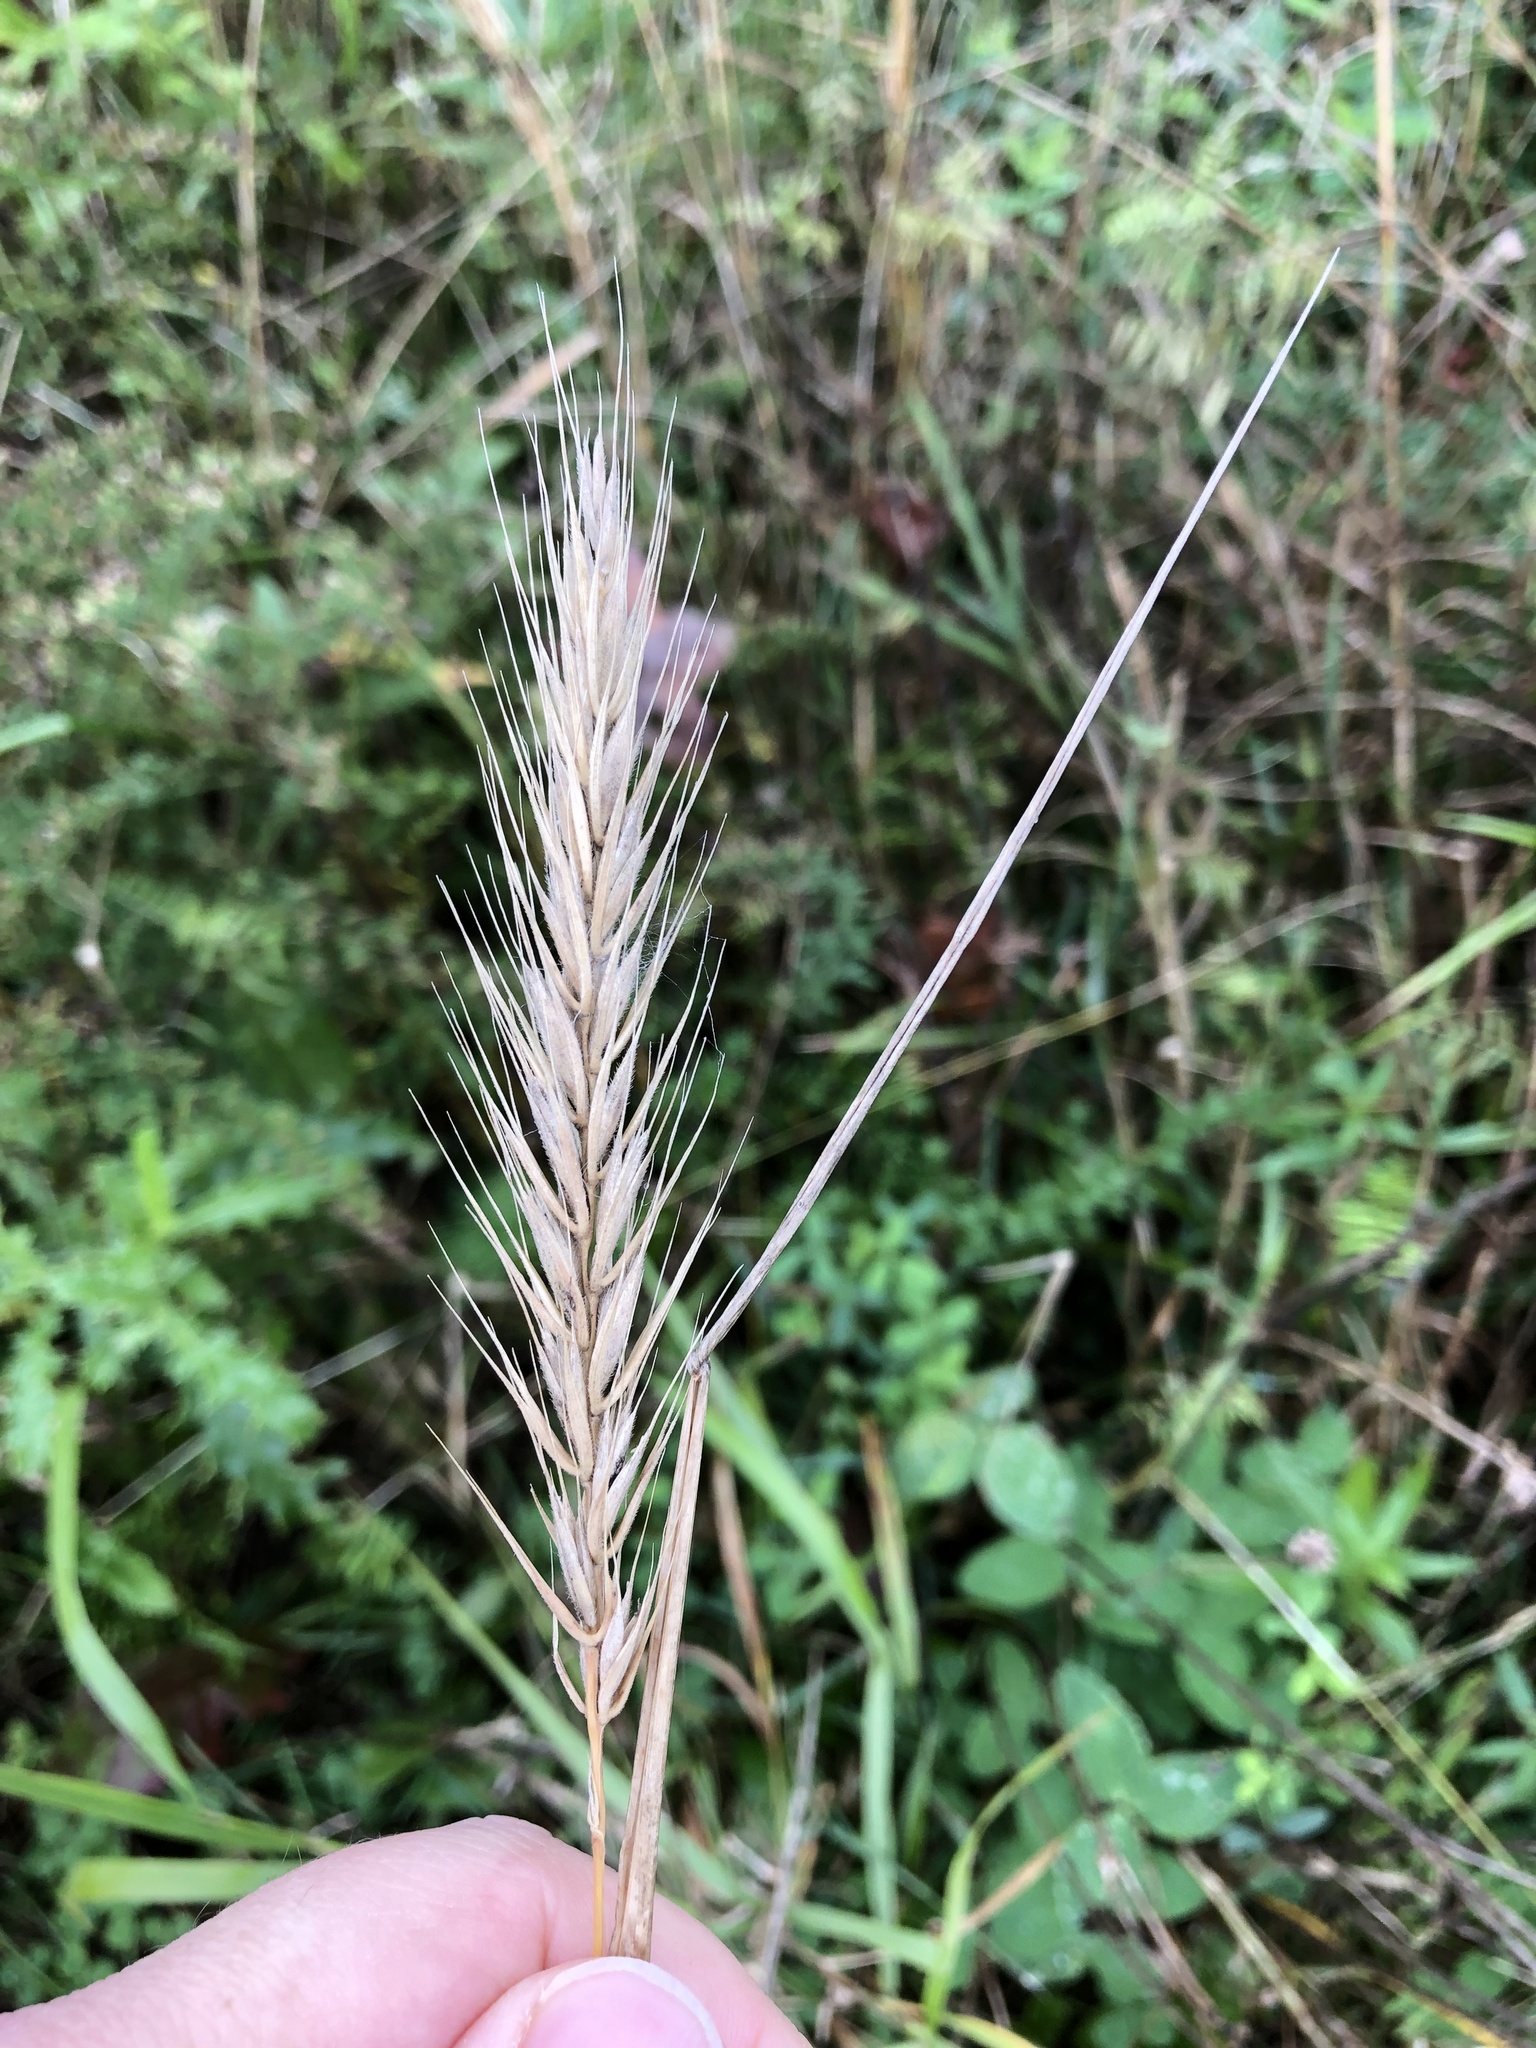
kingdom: Plantae
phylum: Tracheophyta
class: Liliopsida
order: Poales
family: Poaceae
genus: Elymus
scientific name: Elymus virginicus
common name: Common eastern wildrye
